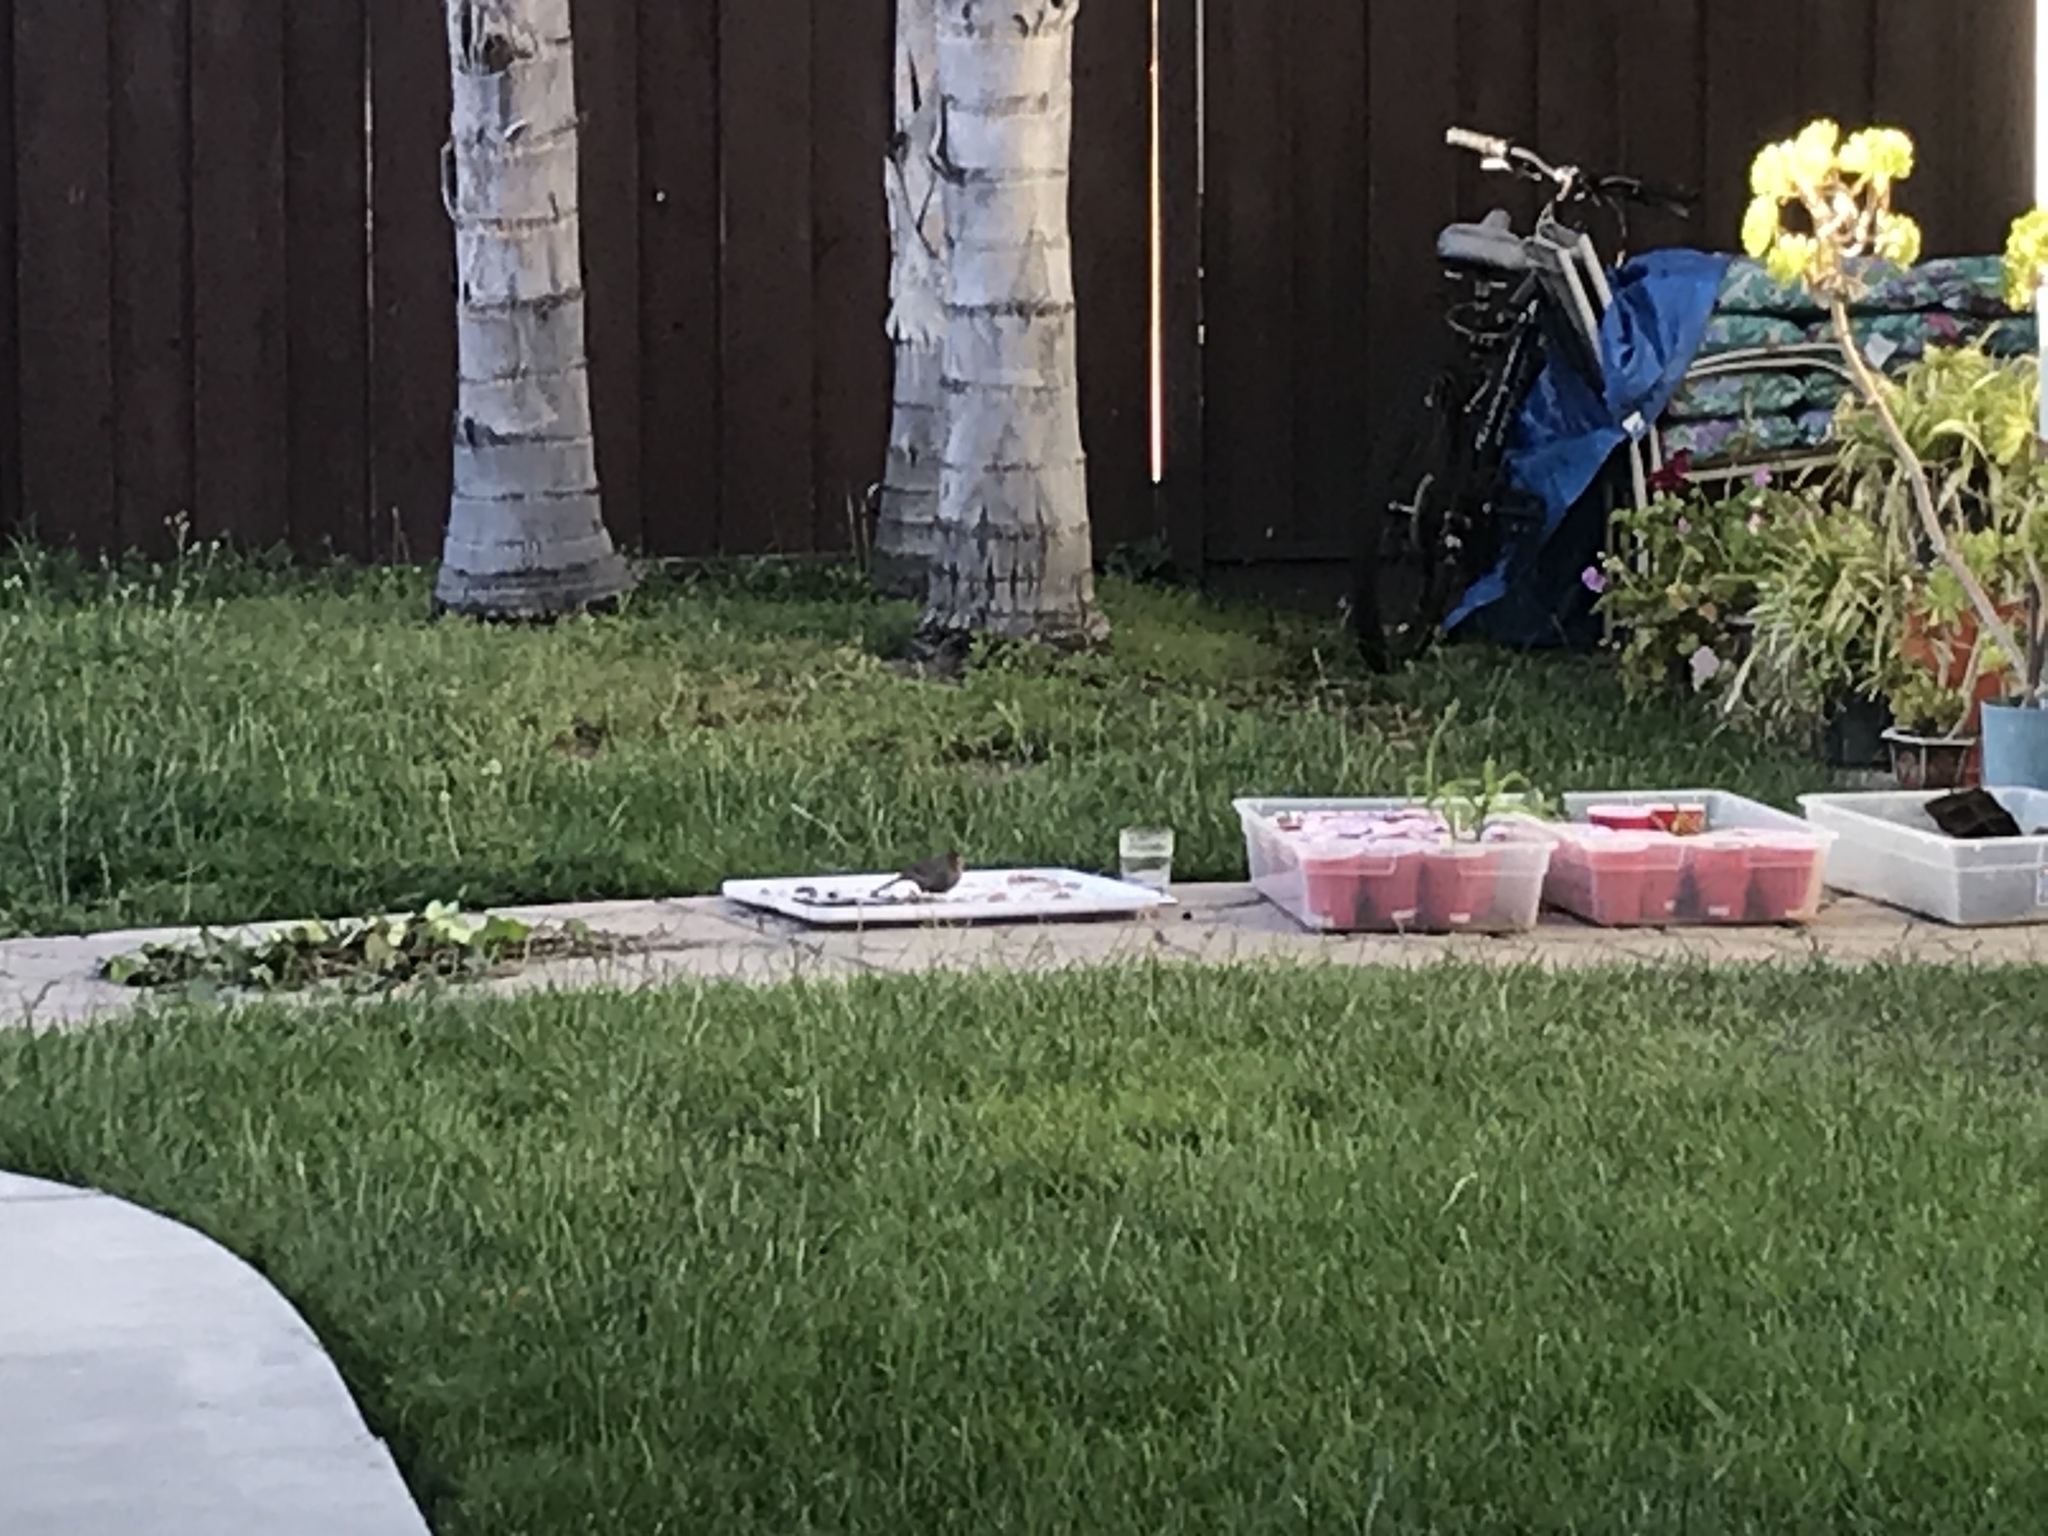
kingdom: Animalia
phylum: Chordata
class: Aves
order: Passeriformes
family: Passerellidae
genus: Melozone
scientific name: Melozone crissalis
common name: California towhee
